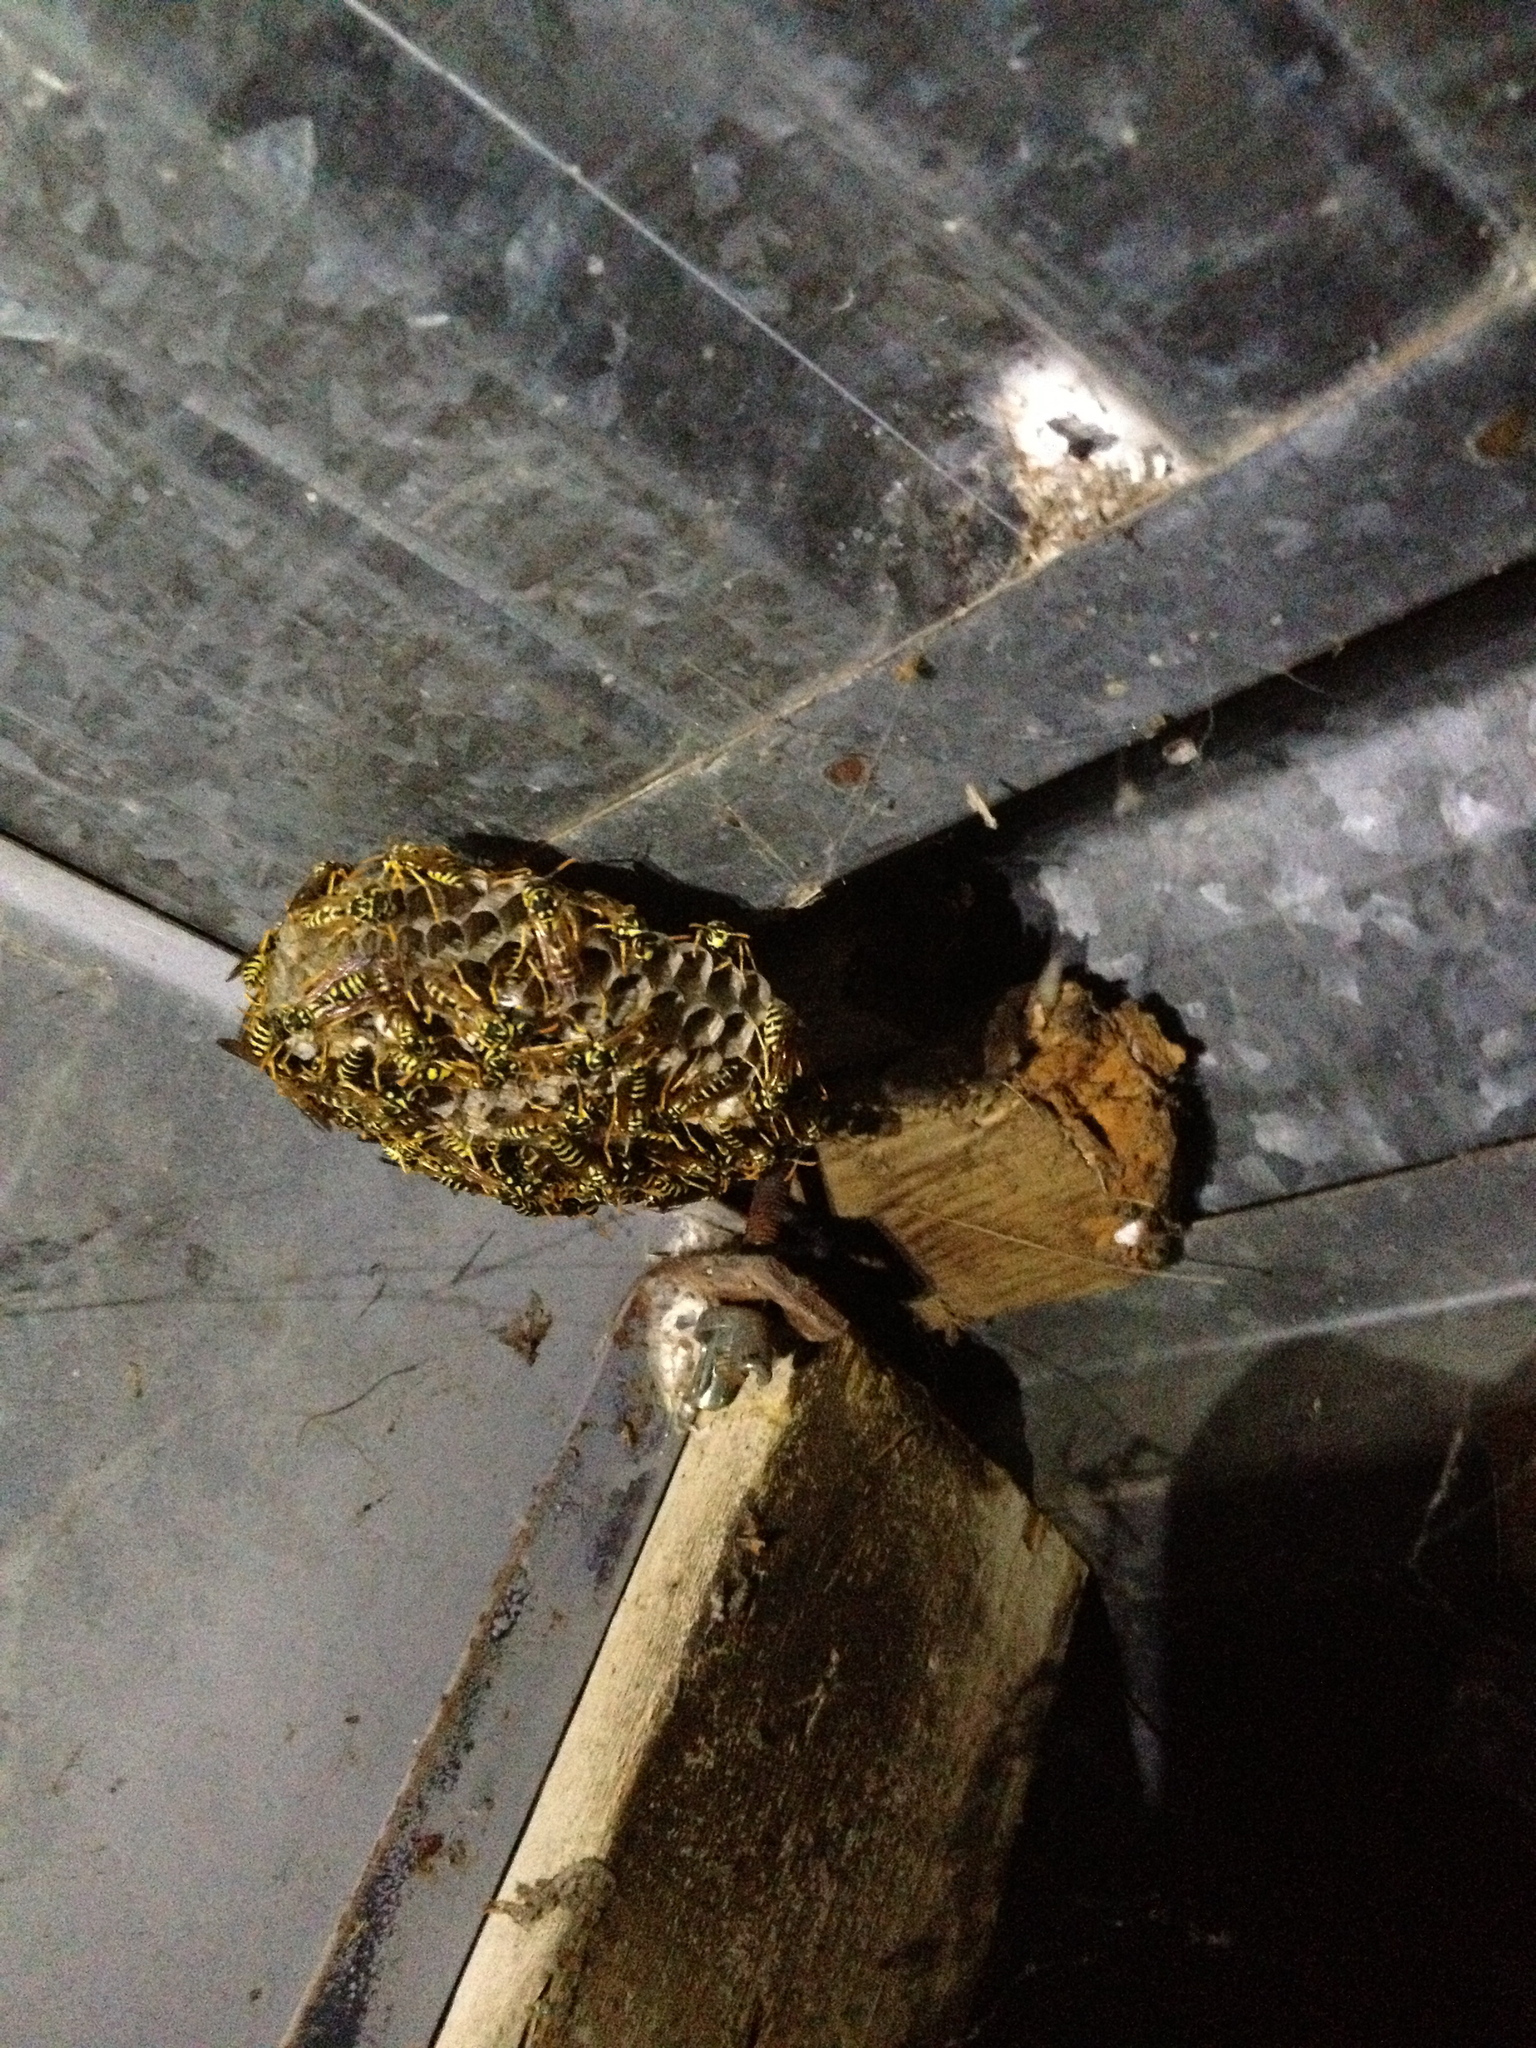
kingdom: Animalia
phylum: Arthropoda
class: Insecta
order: Hymenoptera
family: Eumenidae
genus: Polistes
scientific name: Polistes dominula
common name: Paper wasp
